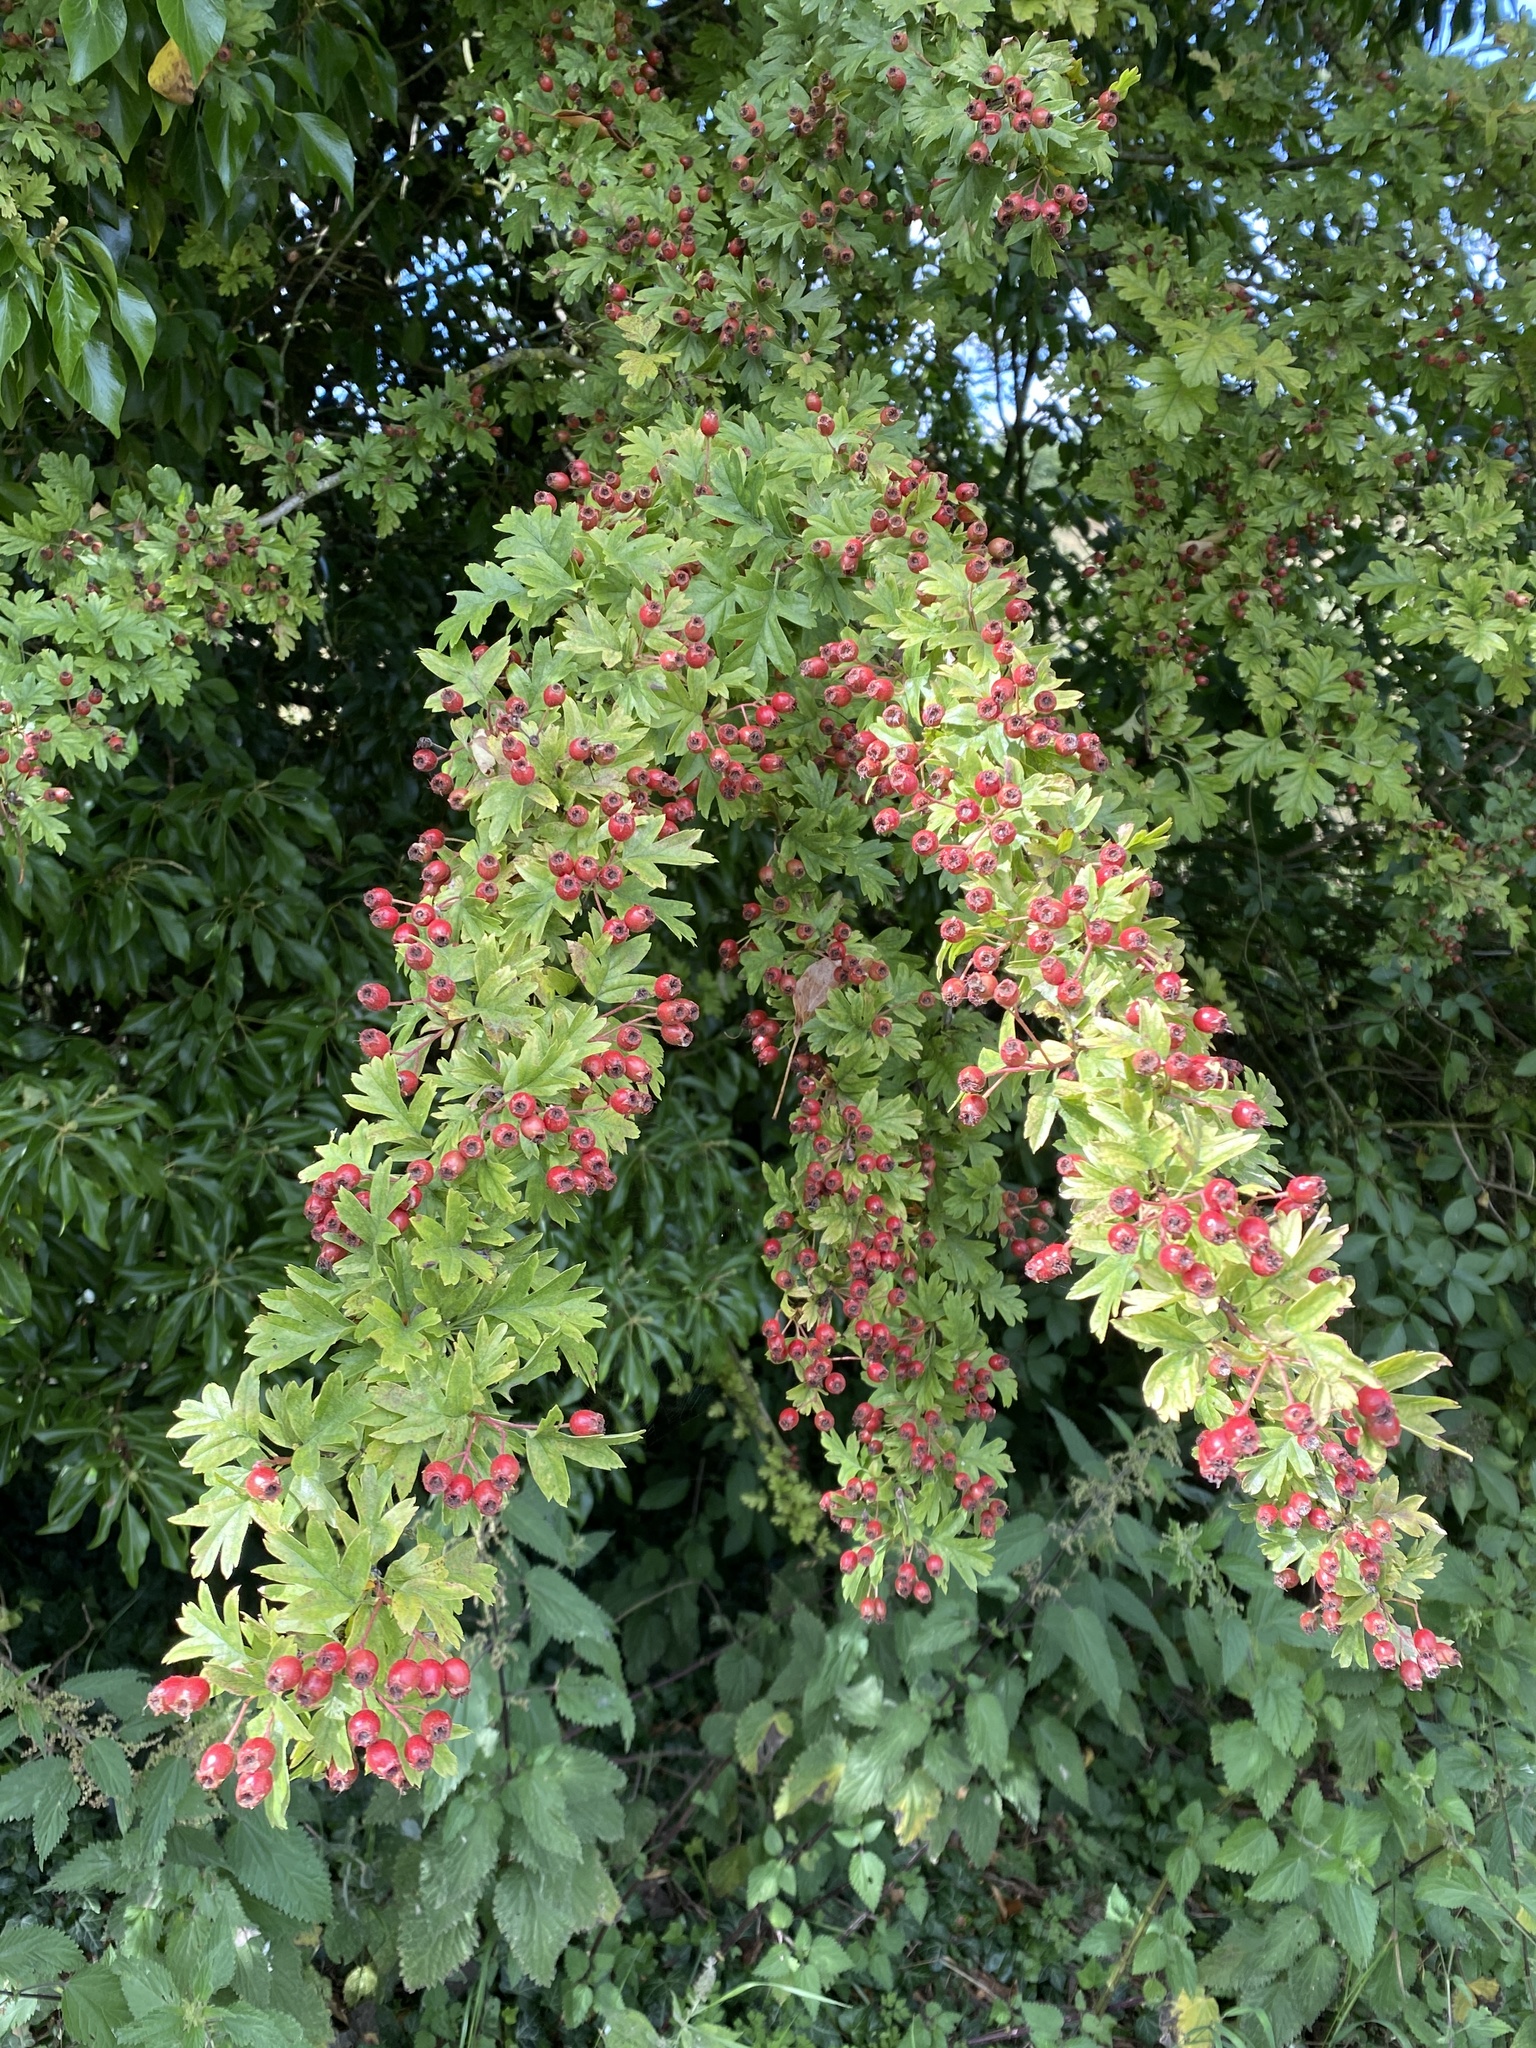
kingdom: Plantae
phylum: Tracheophyta
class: Magnoliopsida
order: Rosales
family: Rosaceae
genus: Crataegus
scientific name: Crataegus monogyna
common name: Hawthorn
